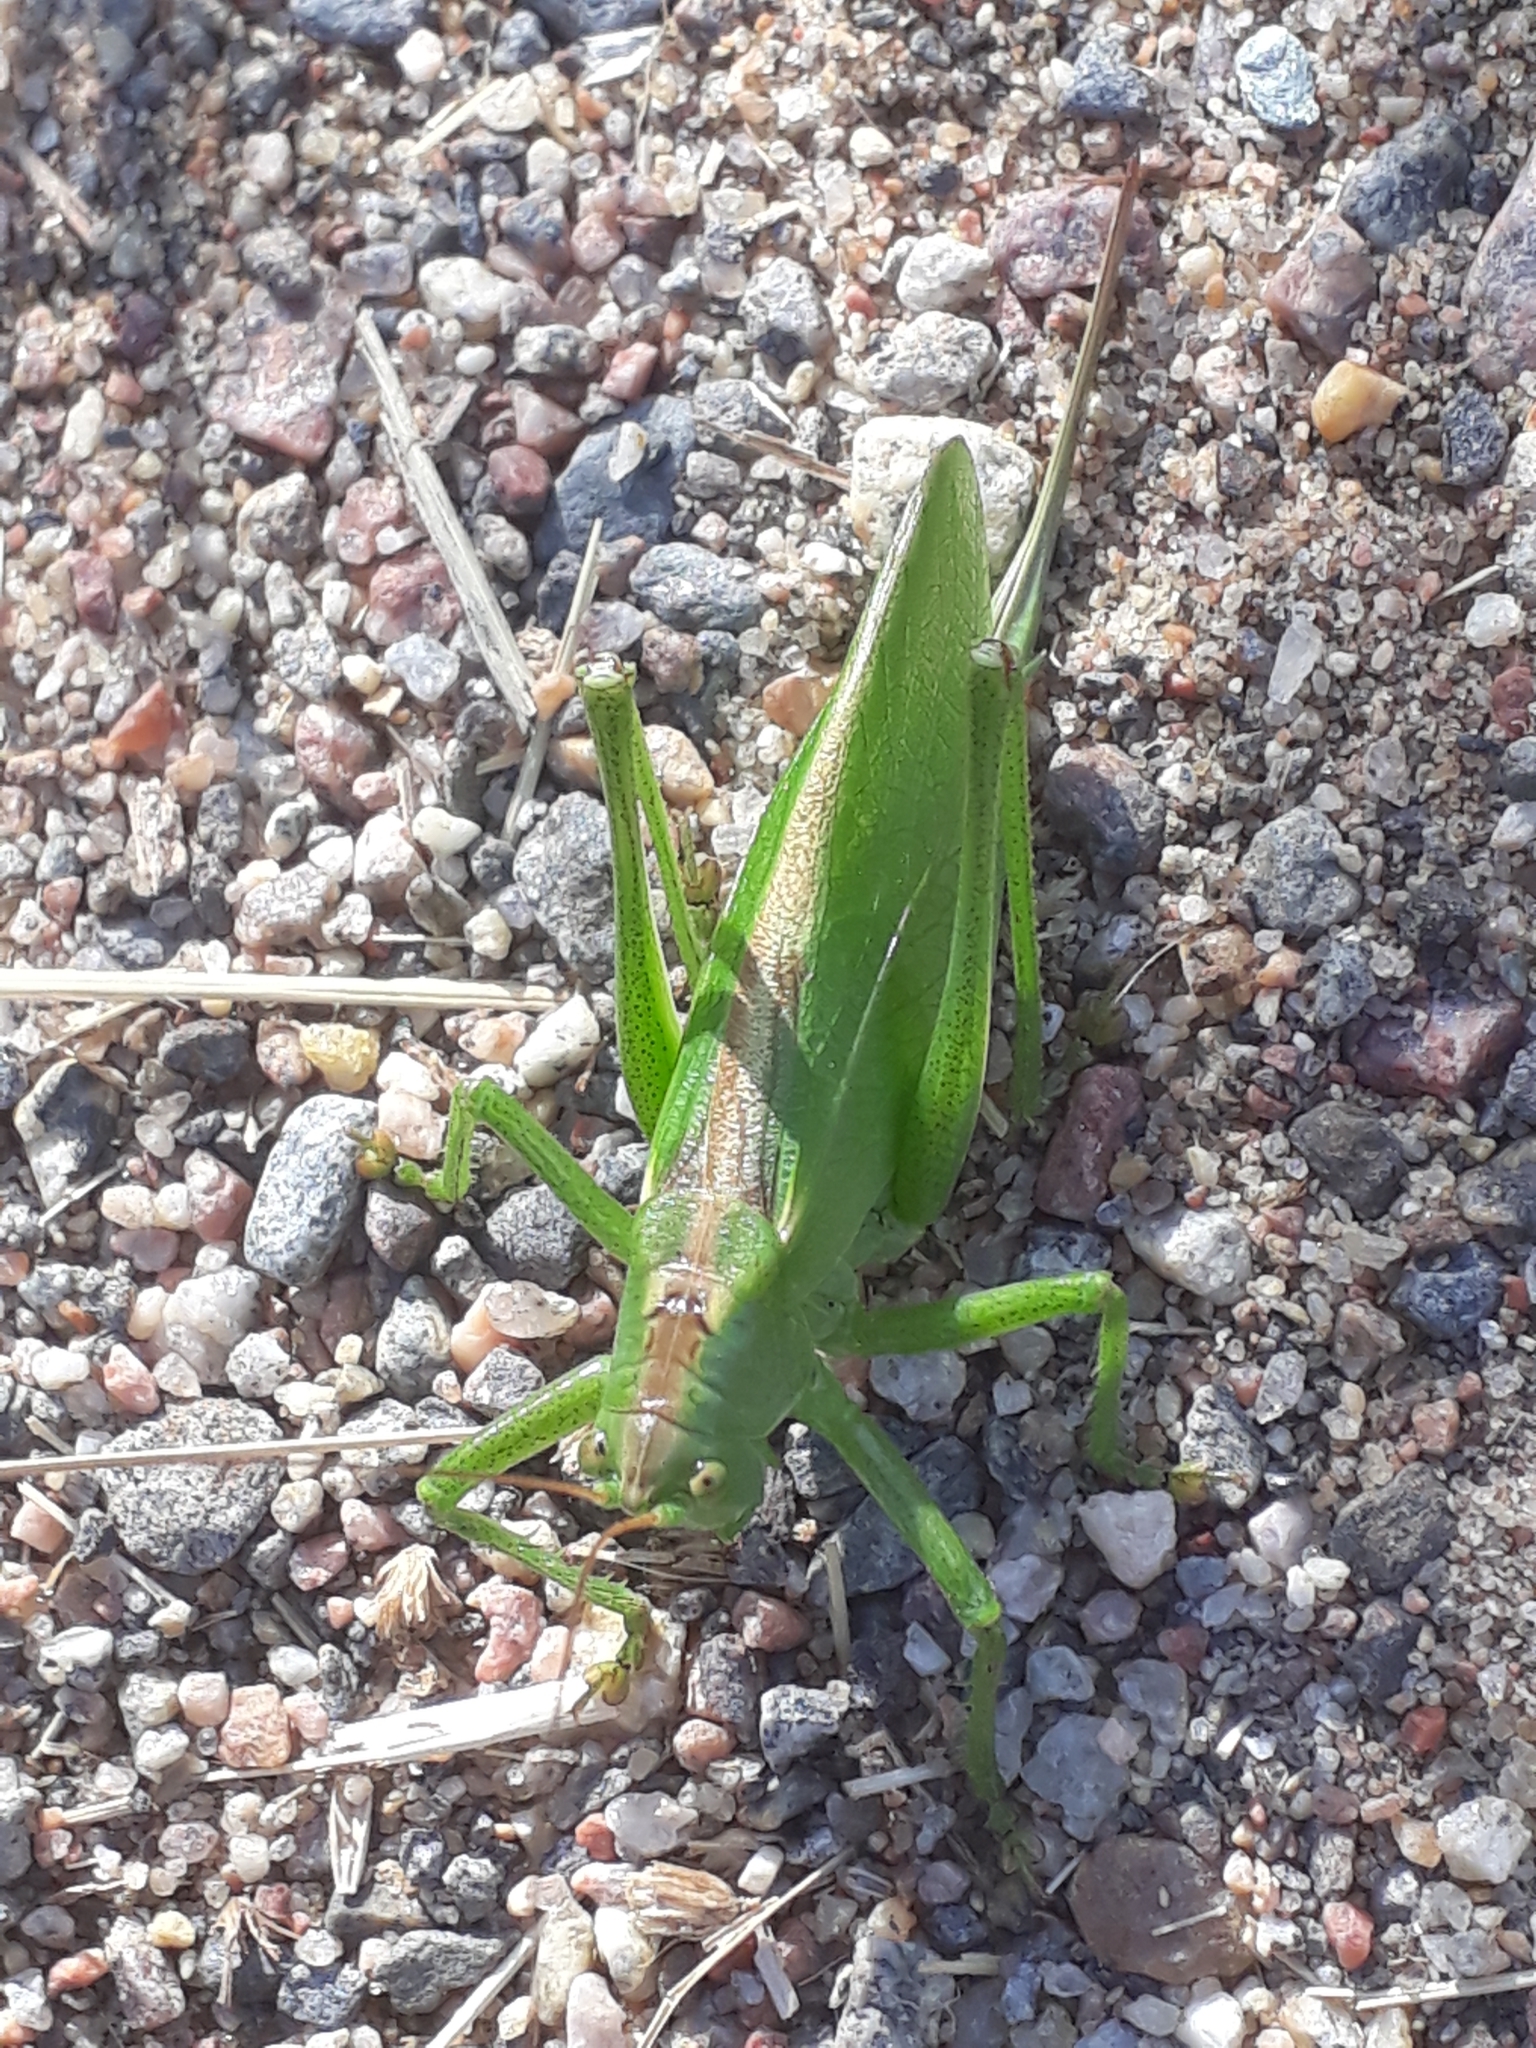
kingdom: Animalia
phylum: Arthropoda
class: Insecta
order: Orthoptera
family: Tettigoniidae
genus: Tettigonia
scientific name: Tettigonia cantans
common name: Upland green bush-cricket
